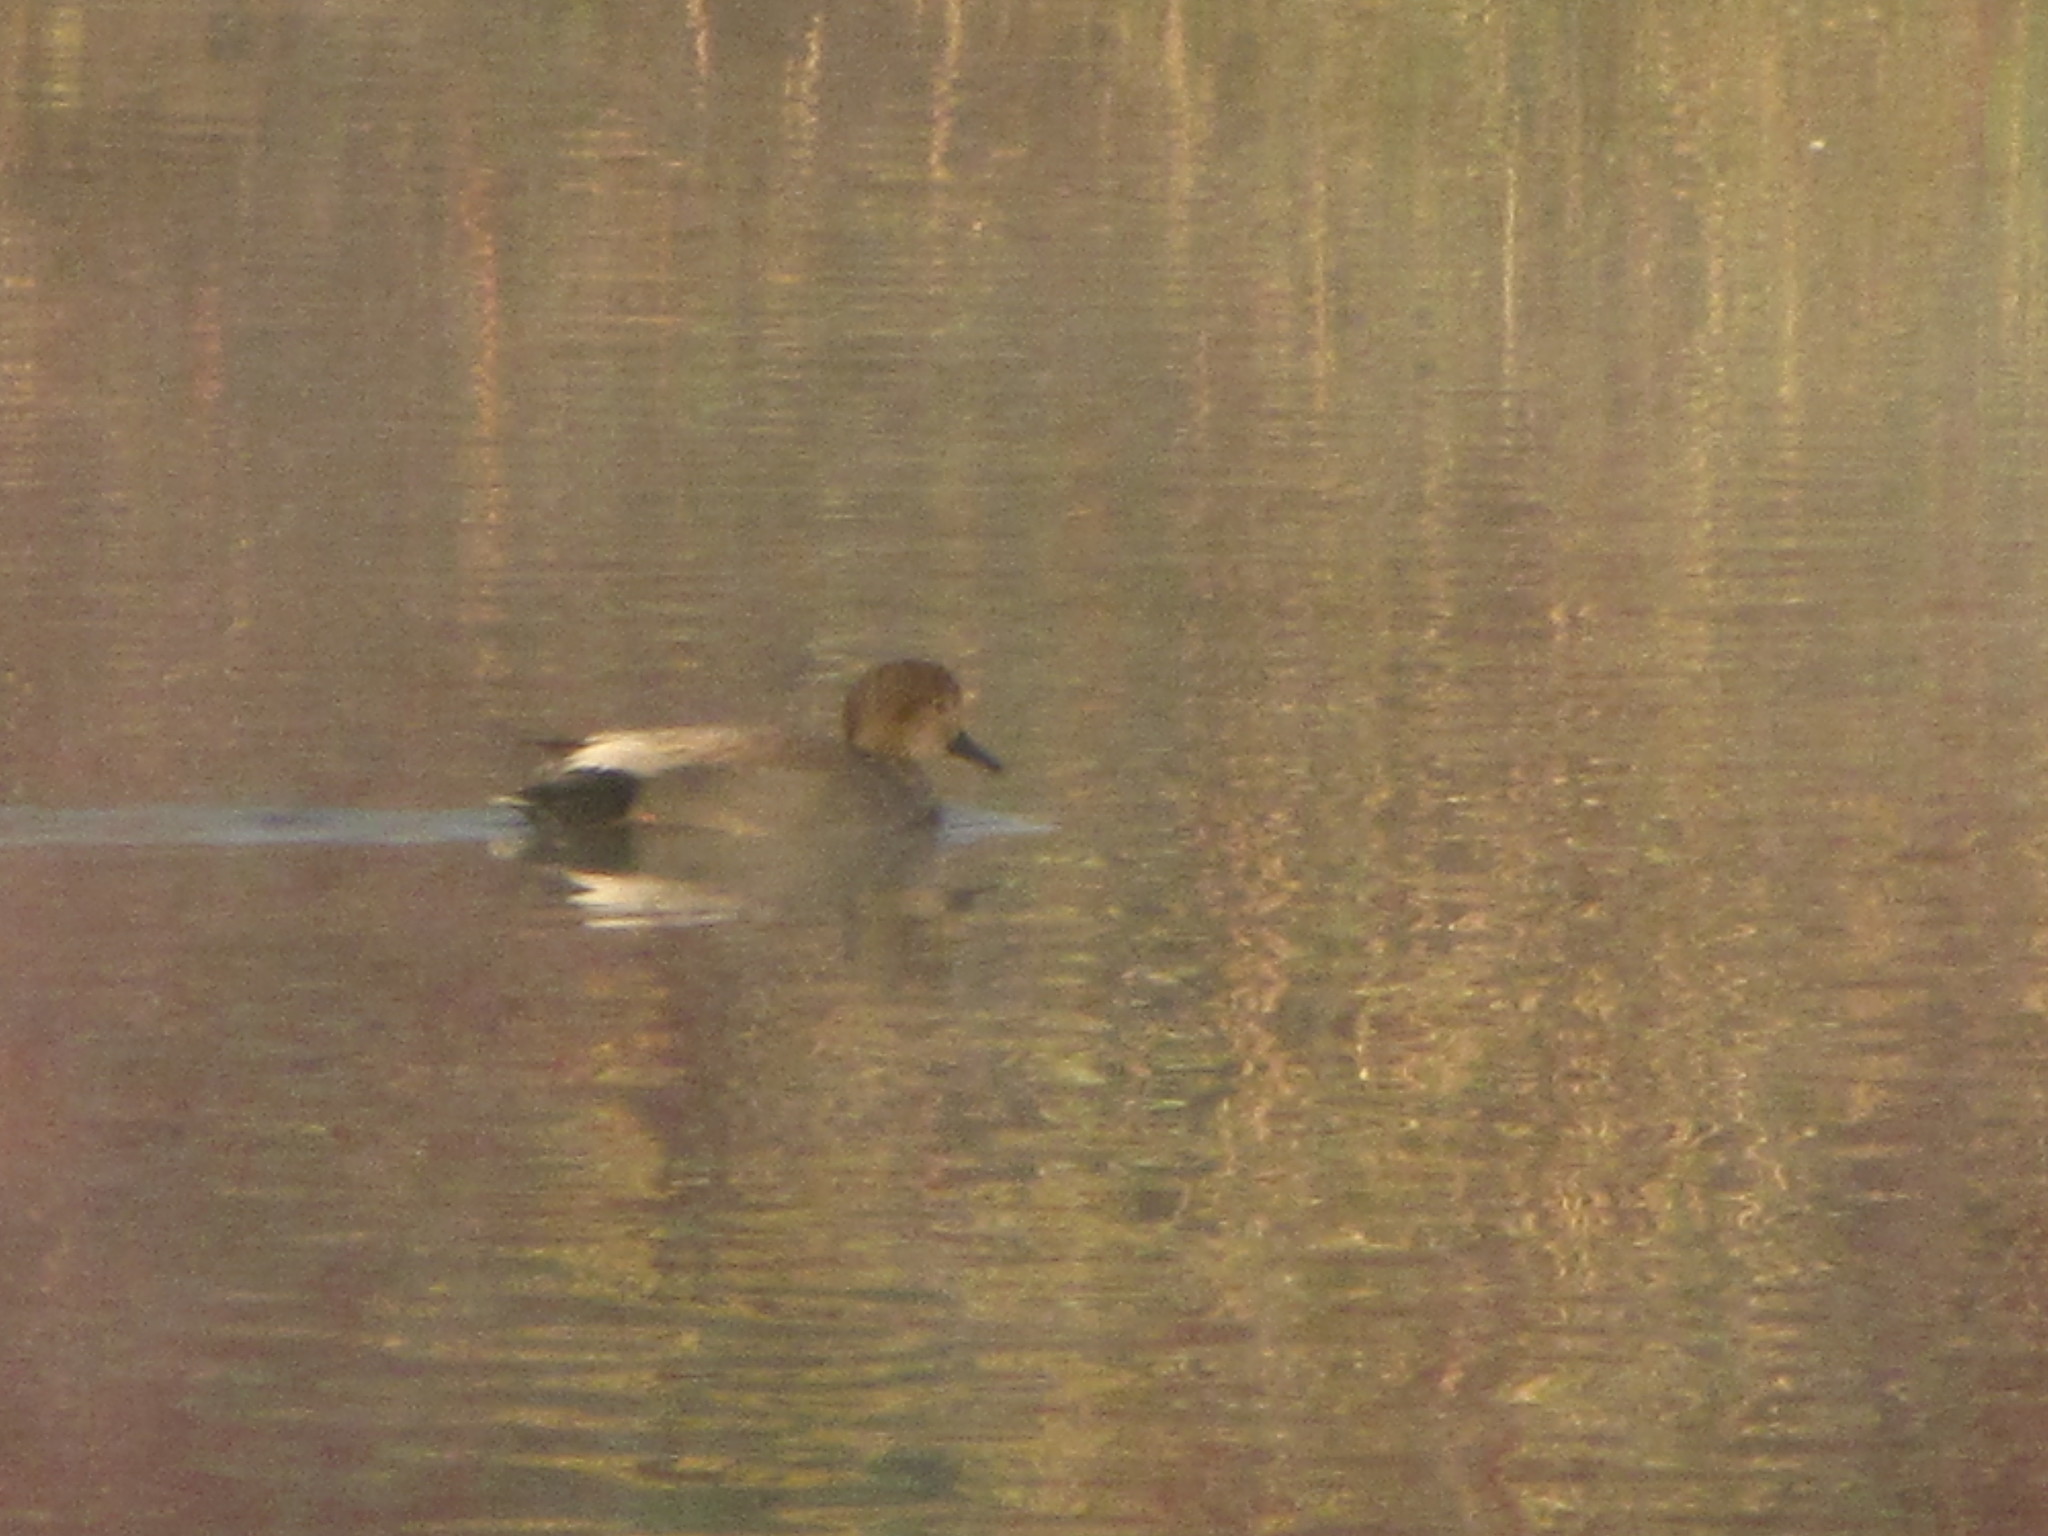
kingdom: Animalia
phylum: Chordata
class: Aves
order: Anseriformes
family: Anatidae
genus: Mareca
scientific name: Mareca strepera
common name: Gadwall
